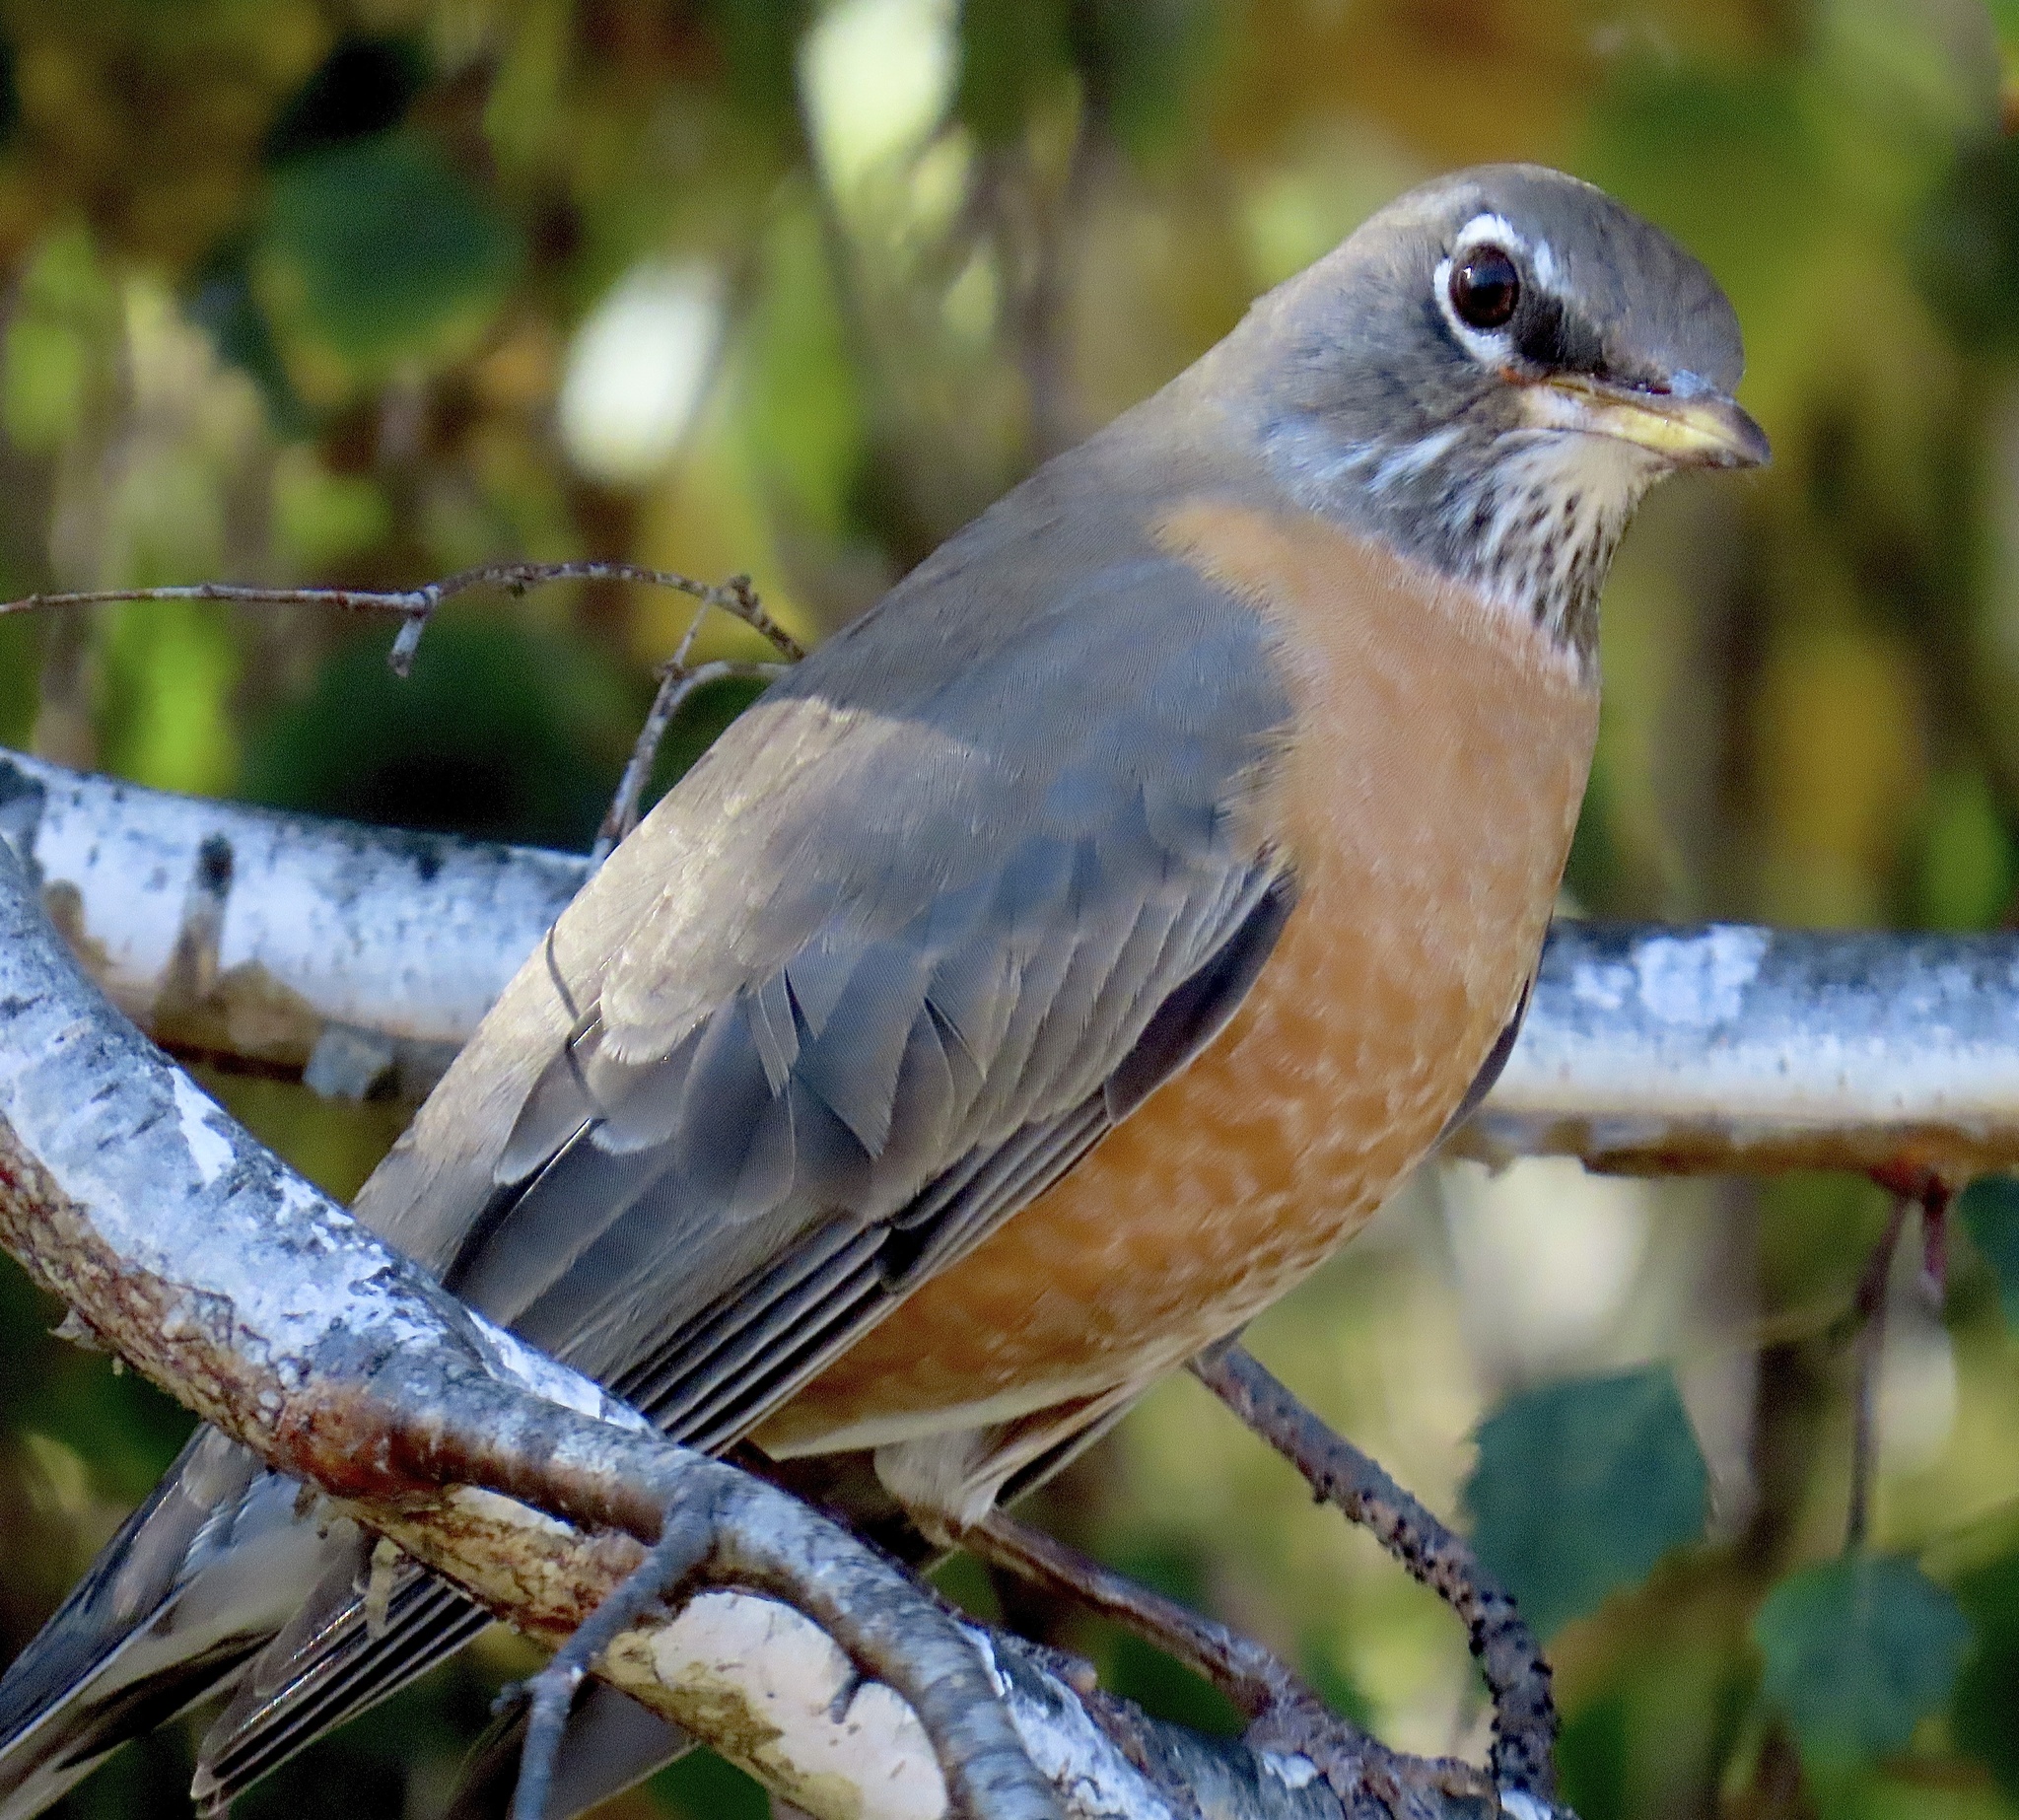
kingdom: Animalia
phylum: Chordata
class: Aves
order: Passeriformes
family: Turdidae
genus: Turdus
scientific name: Turdus migratorius
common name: American robin
